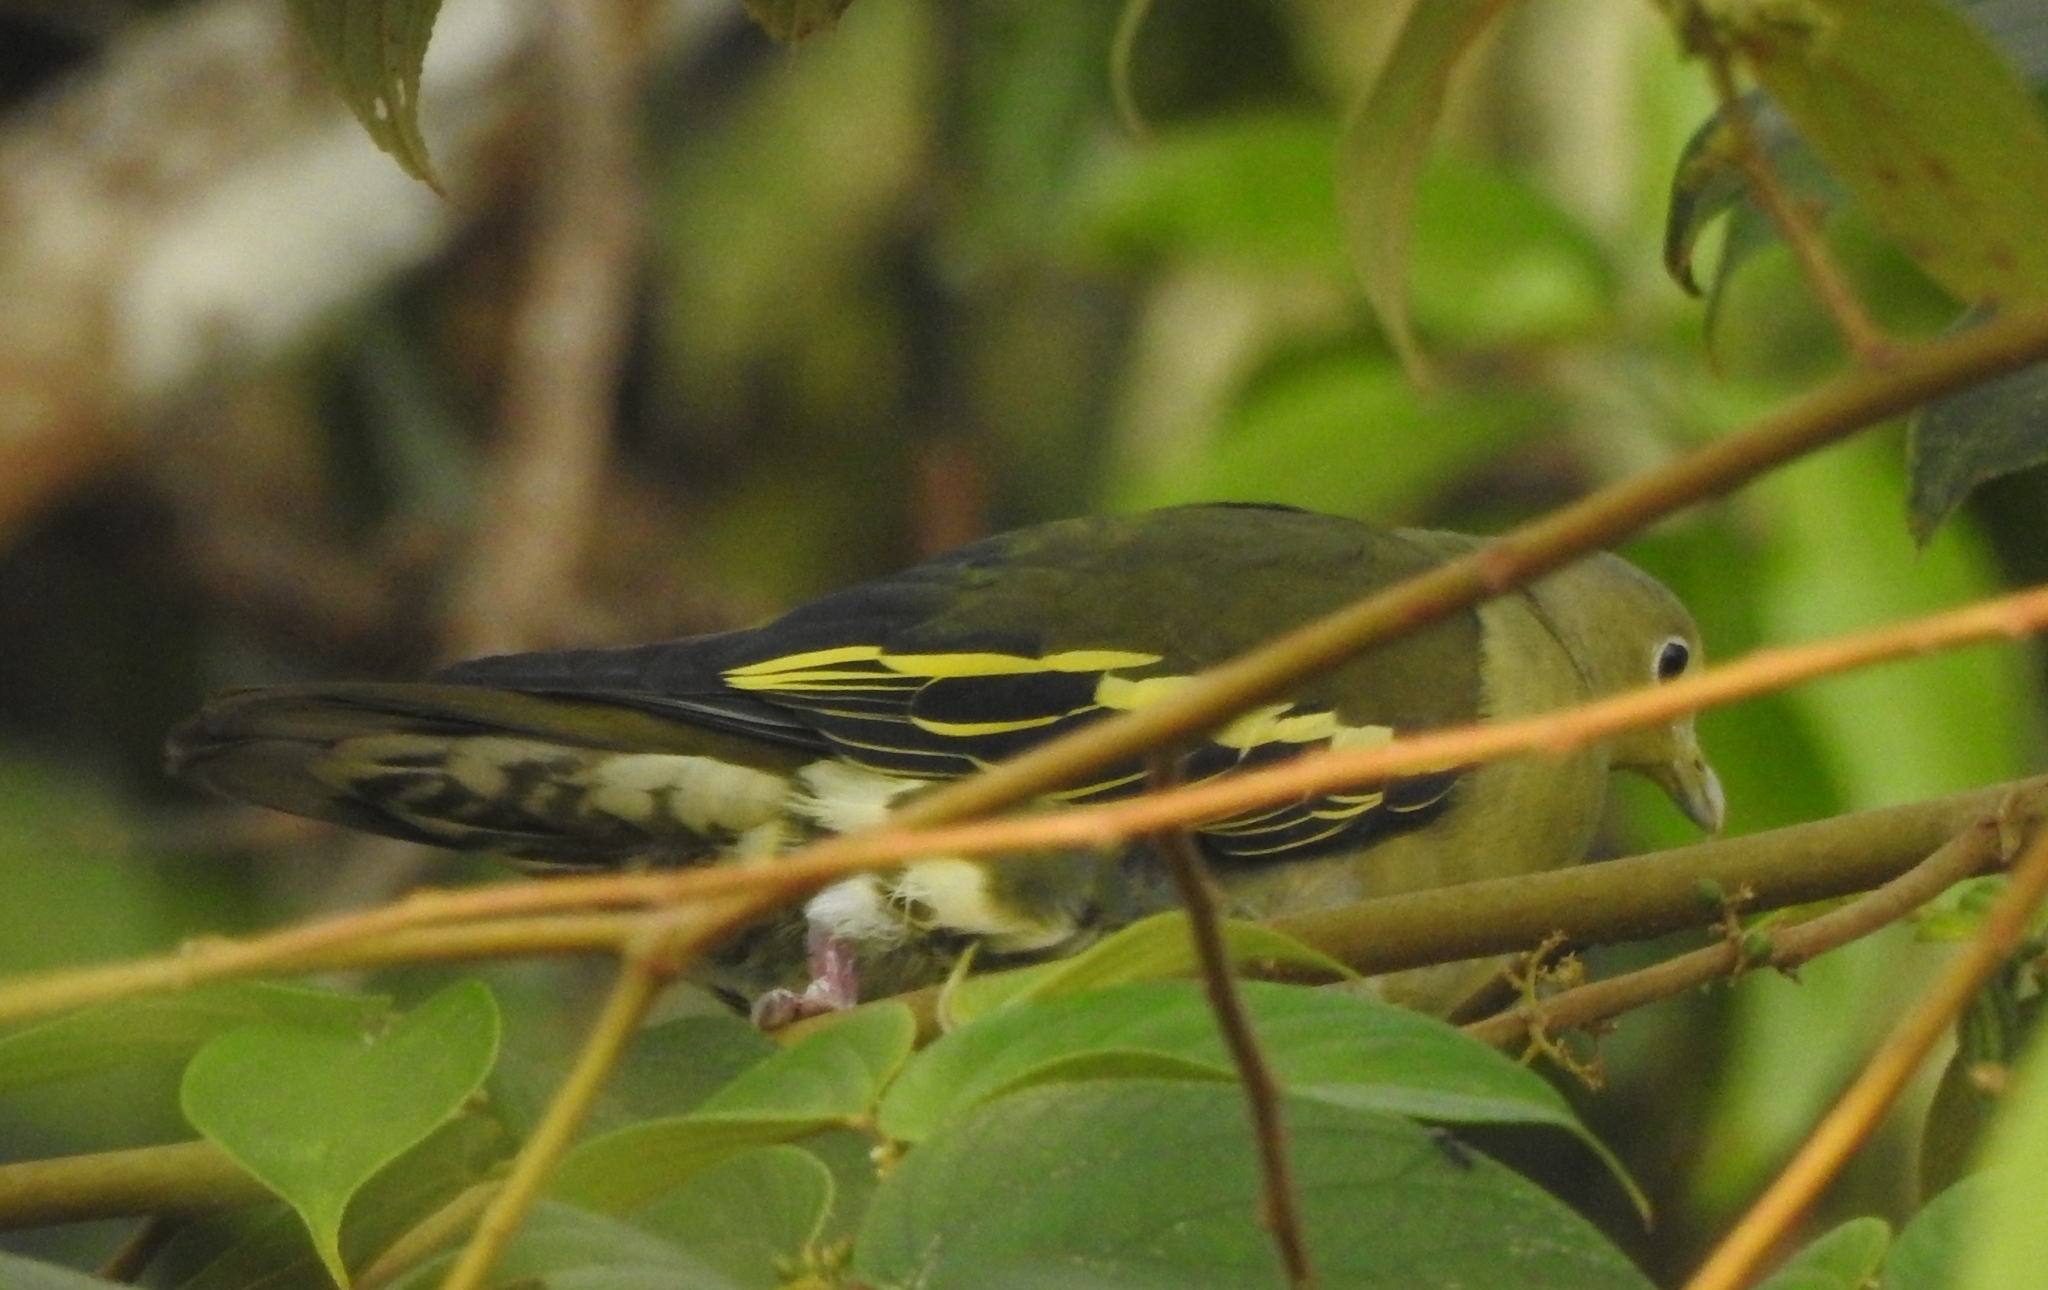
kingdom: Animalia
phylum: Chordata
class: Aves
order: Columbiformes
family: Columbidae
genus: Treron
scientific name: Treron affinis
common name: Grey-fronted green pigeon
